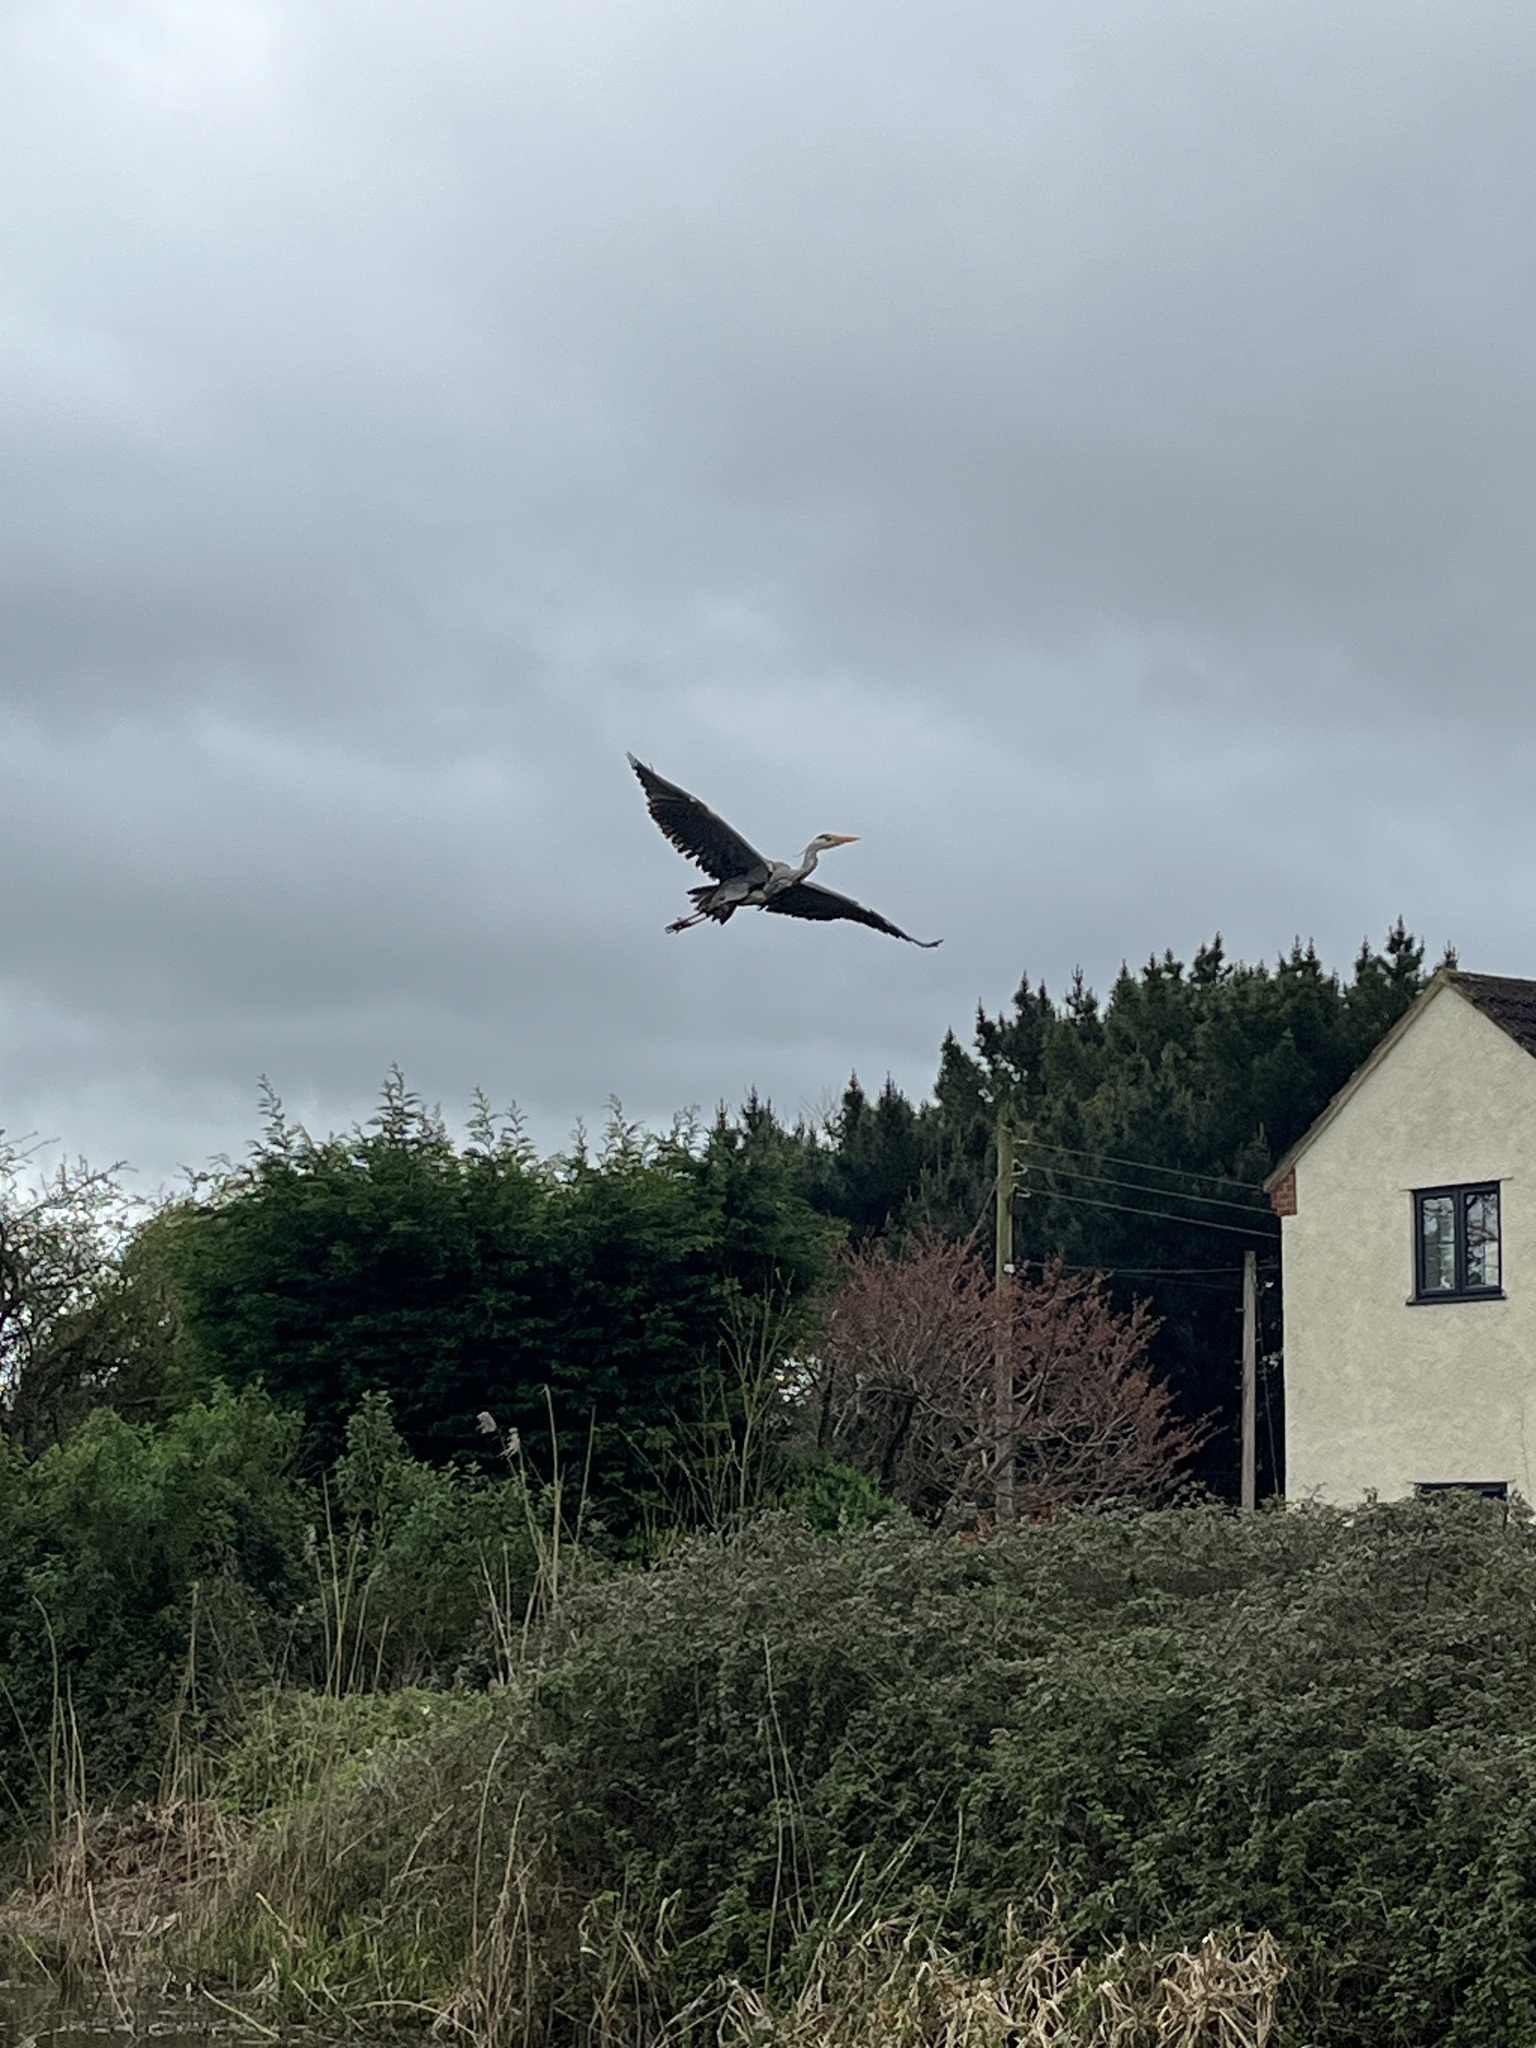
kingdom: Animalia
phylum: Chordata
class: Aves
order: Pelecaniformes
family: Ardeidae
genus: Ardea
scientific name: Ardea cinerea
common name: Grey heron
